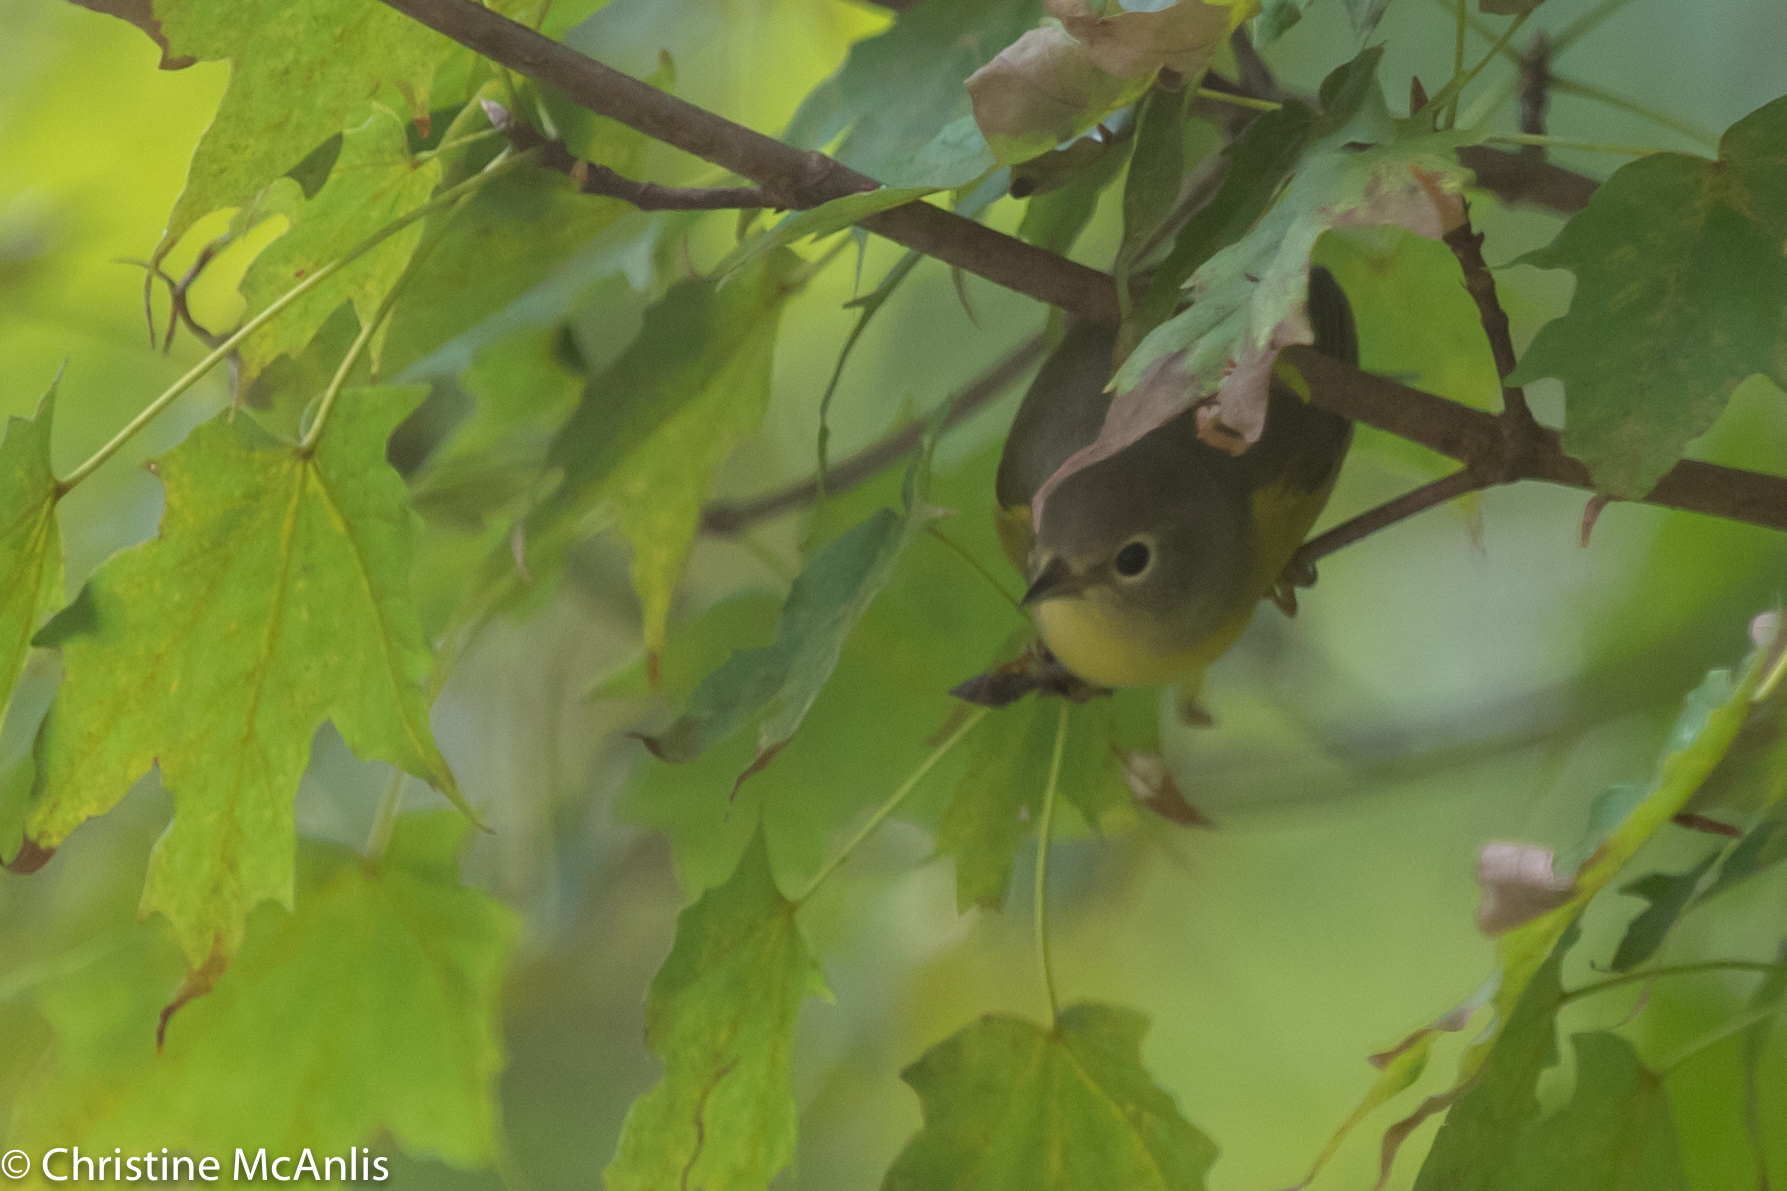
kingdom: Animalia
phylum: Chordata
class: Aves
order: Passeriformes
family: Parulidae
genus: Leiothlypis
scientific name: Leiothlypis ruficapilla
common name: Nashville warbler
